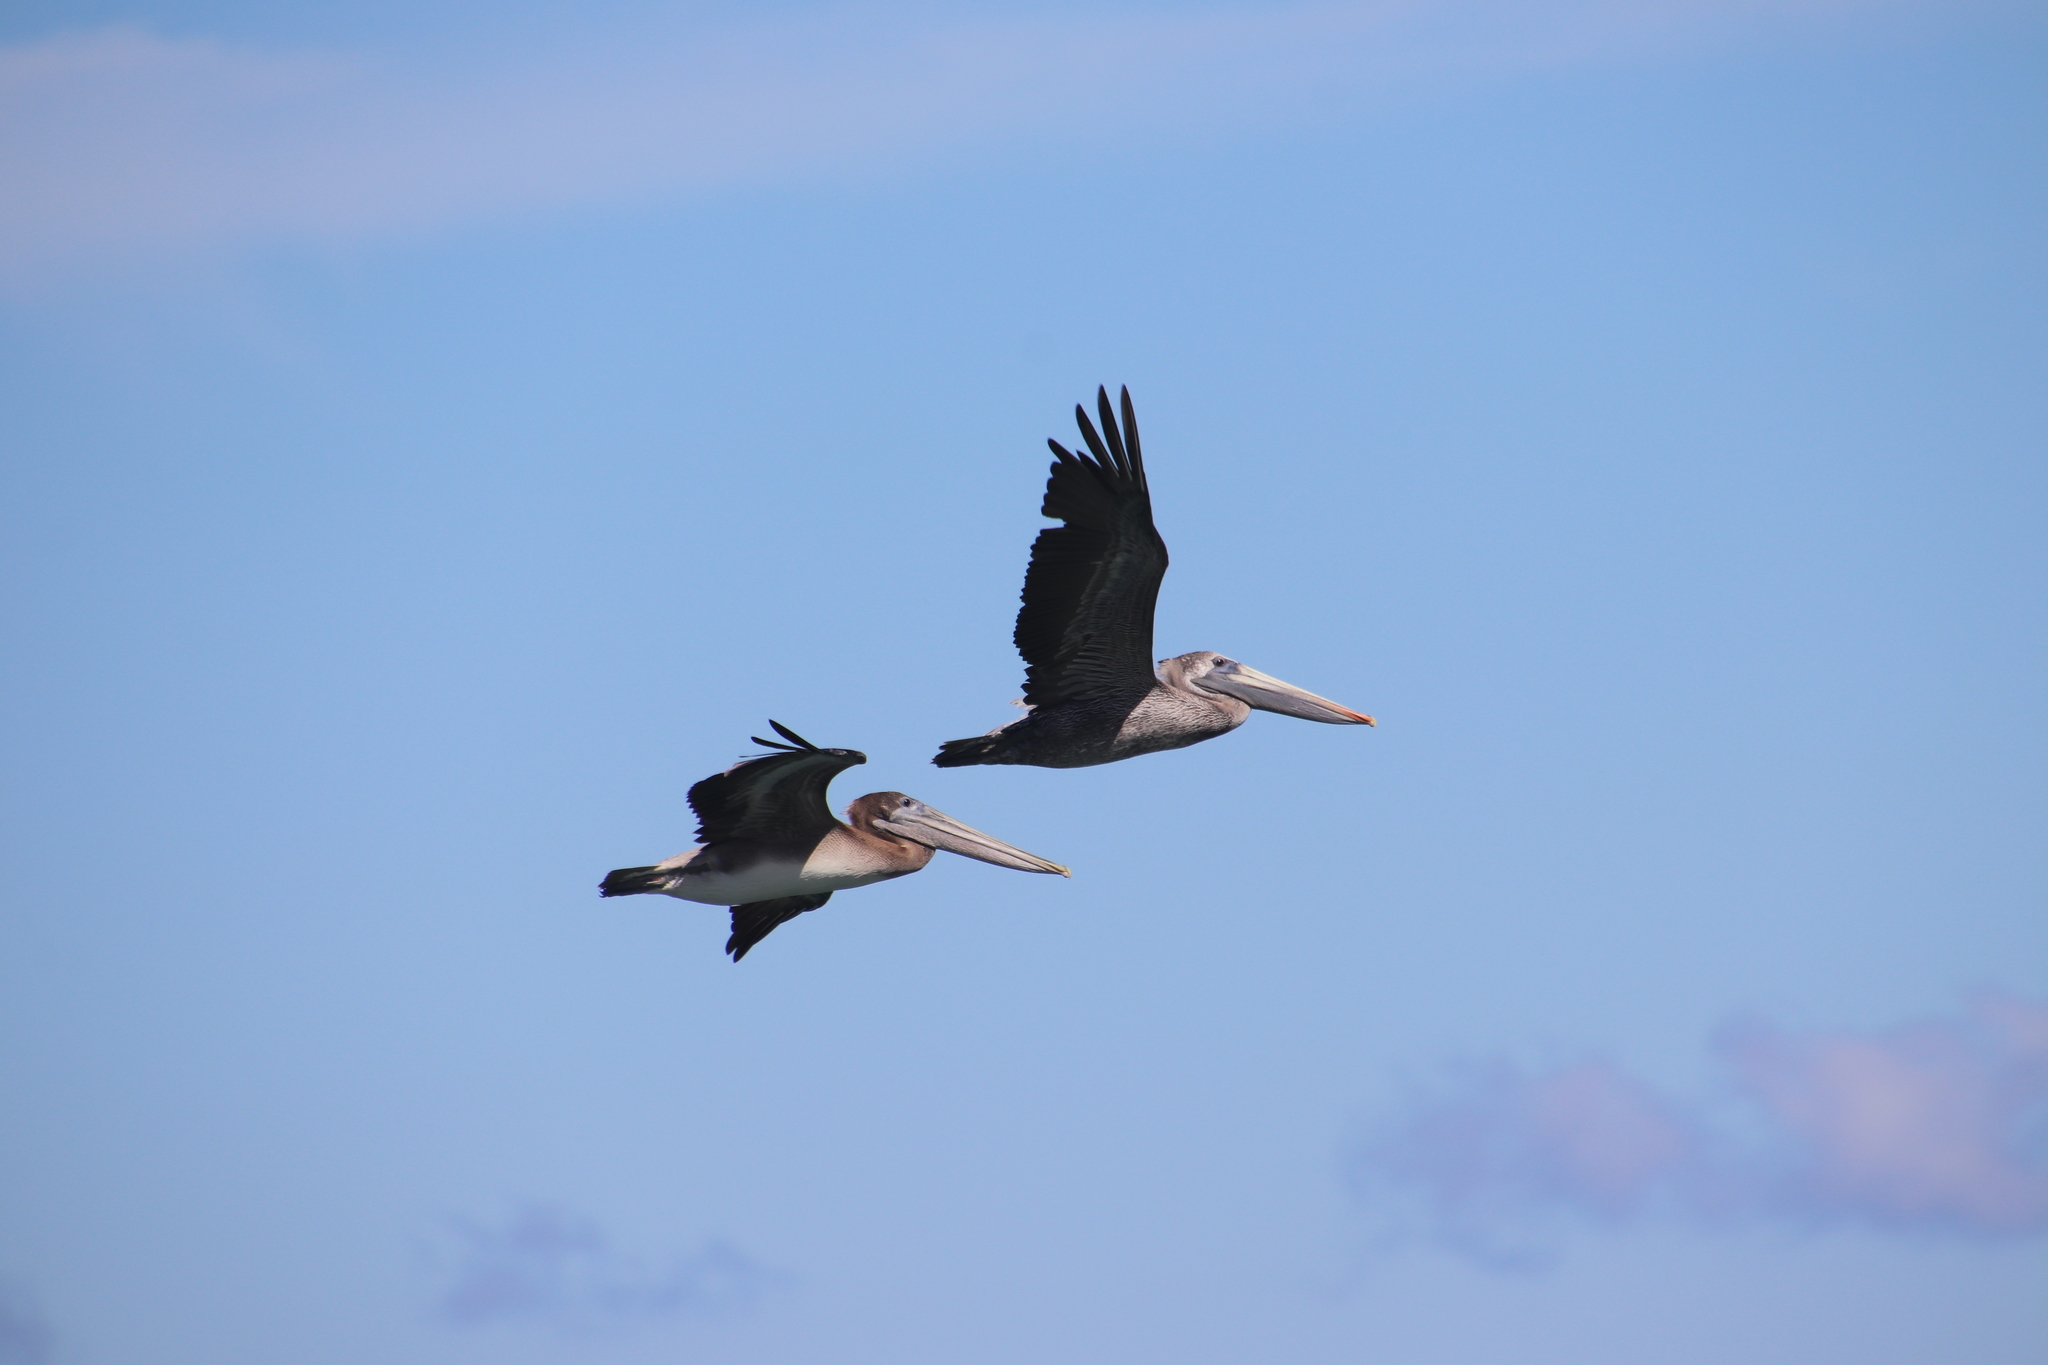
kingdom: Animalia
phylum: Chordata
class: Aves
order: Pelecaniformes
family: Pelecanidae
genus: Pelecanus
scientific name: Pelecanus occidentalis
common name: Brown pelican
